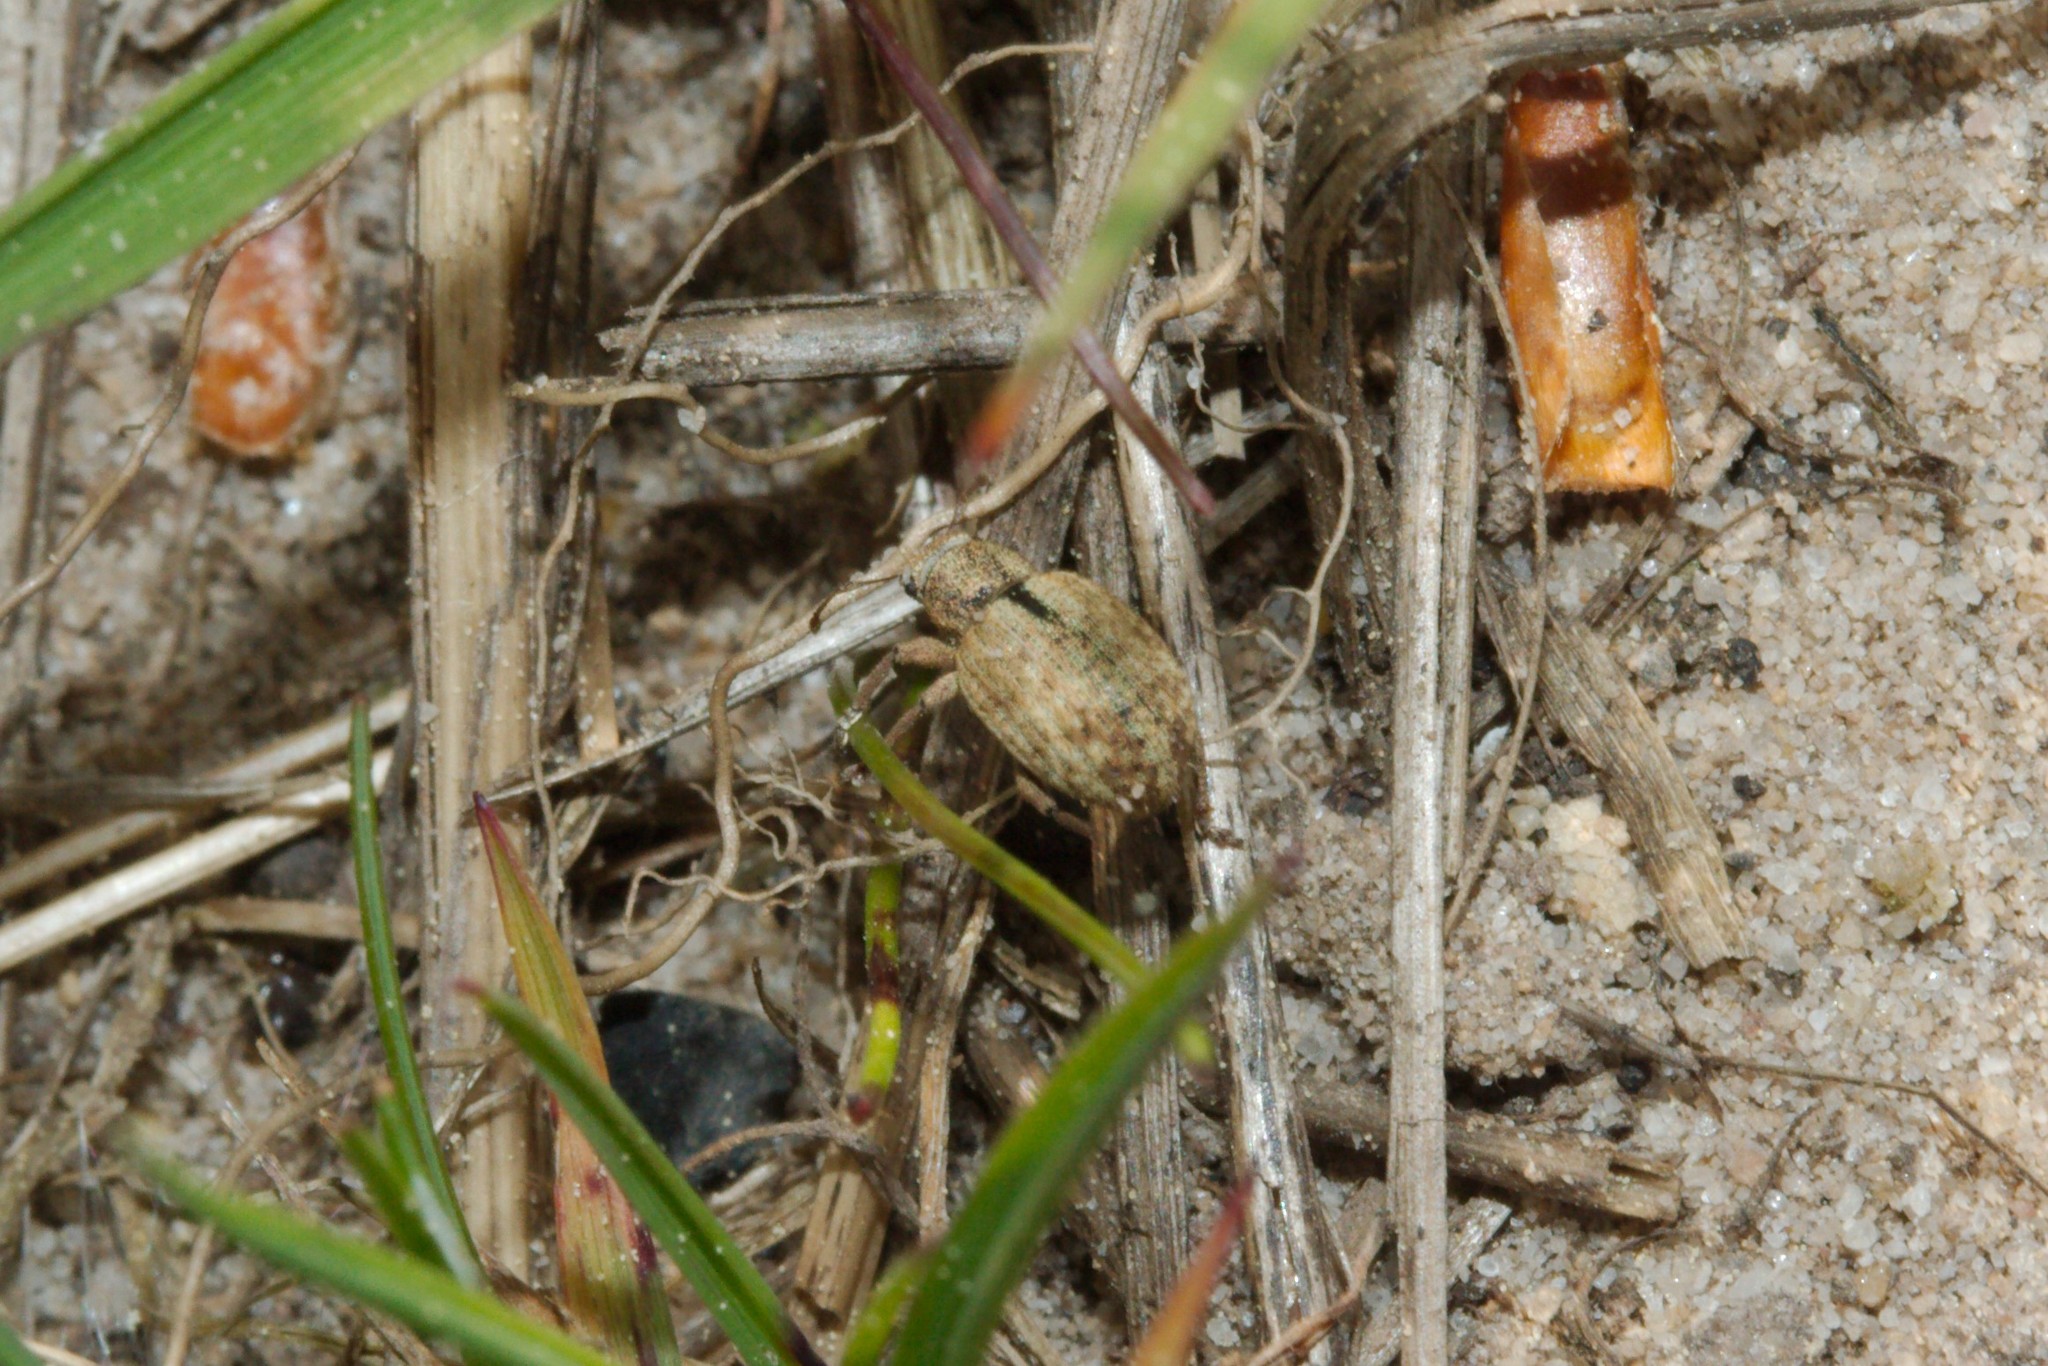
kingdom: Animalia
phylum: Arthropoda
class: Insecta
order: Coleoptera
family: Curculionidae
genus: Strophosoma
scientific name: Strophosoma melanogrammum
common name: Weevil
